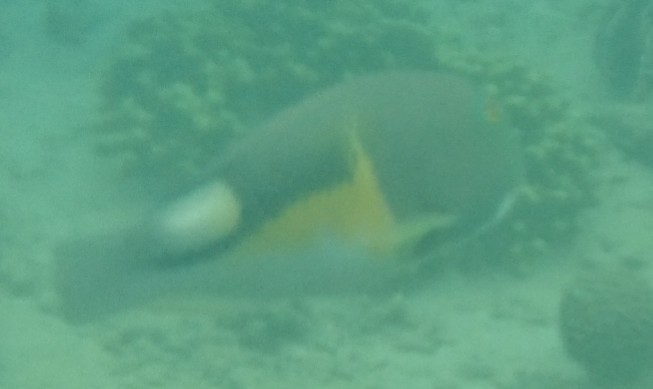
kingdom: Animalia
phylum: Chordata
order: Perciformes
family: Labridae
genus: Choerodon
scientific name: Choerodon anchorago
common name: Anchor tuskfish
